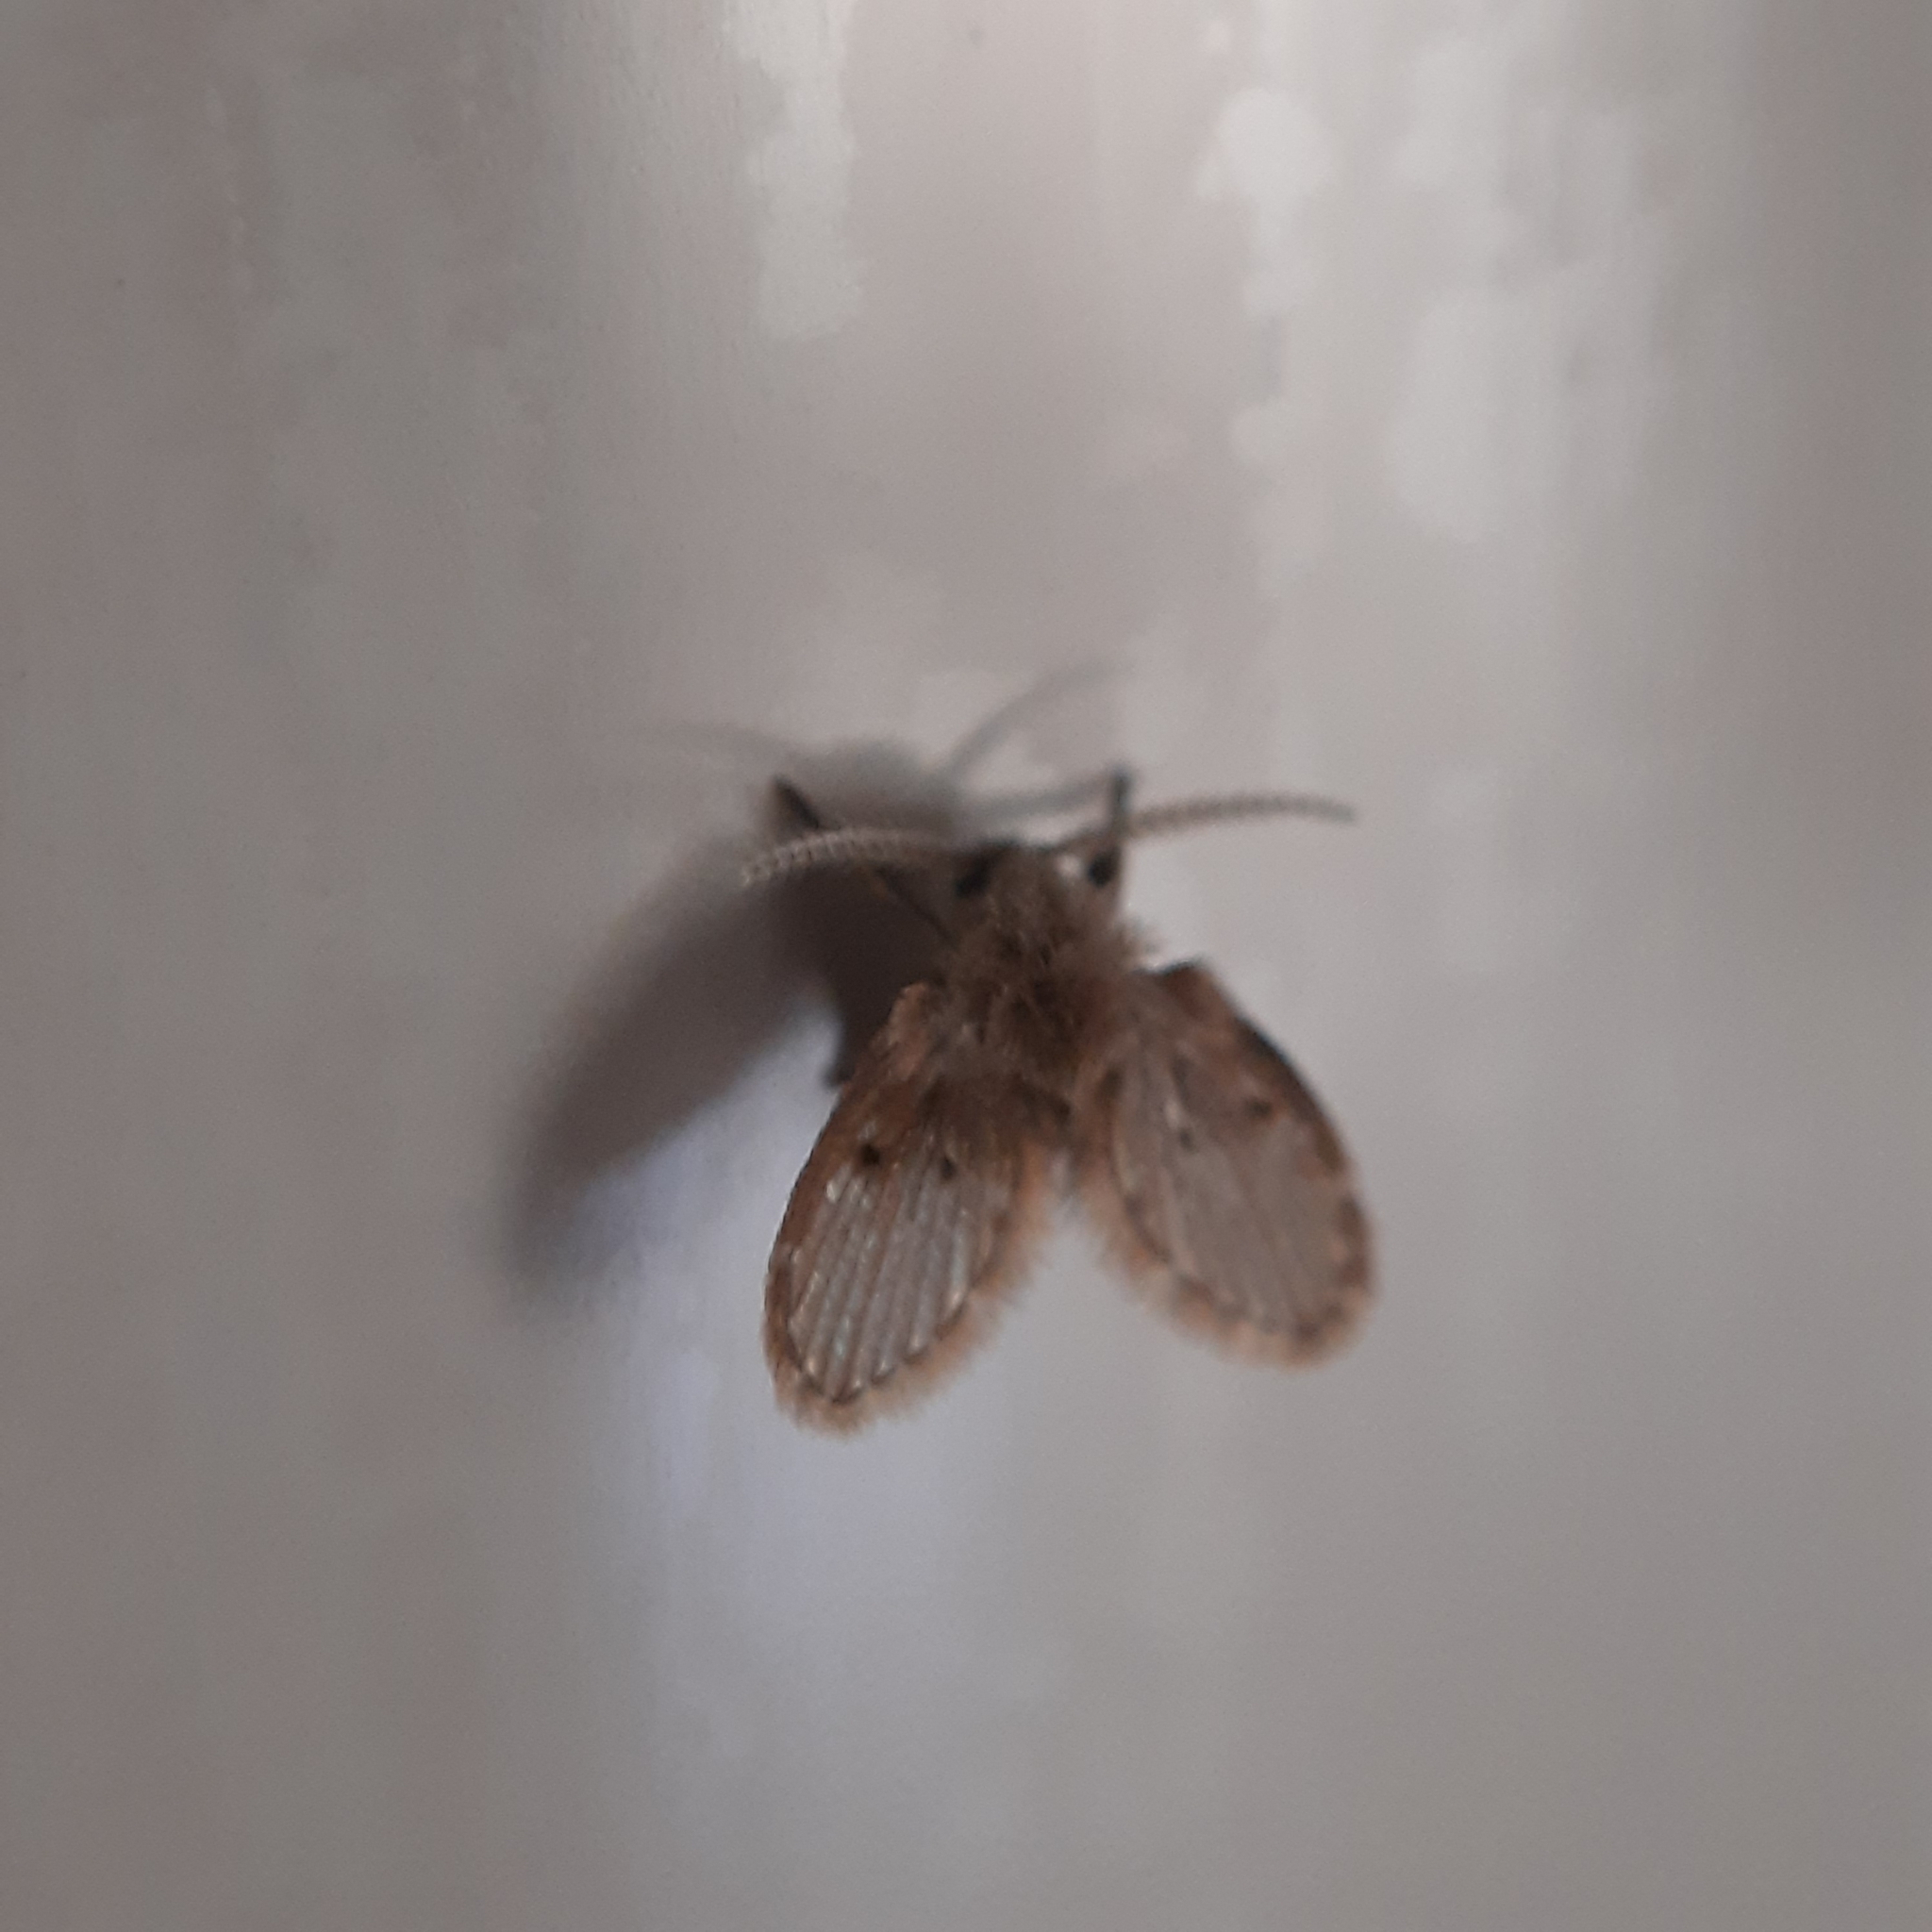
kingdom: Animalia
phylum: Arthropoda
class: Insecta
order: Diptera
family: Psychodidae
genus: Clogmia
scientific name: Clogmia albipunctatus
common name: White-spotted moth fly
